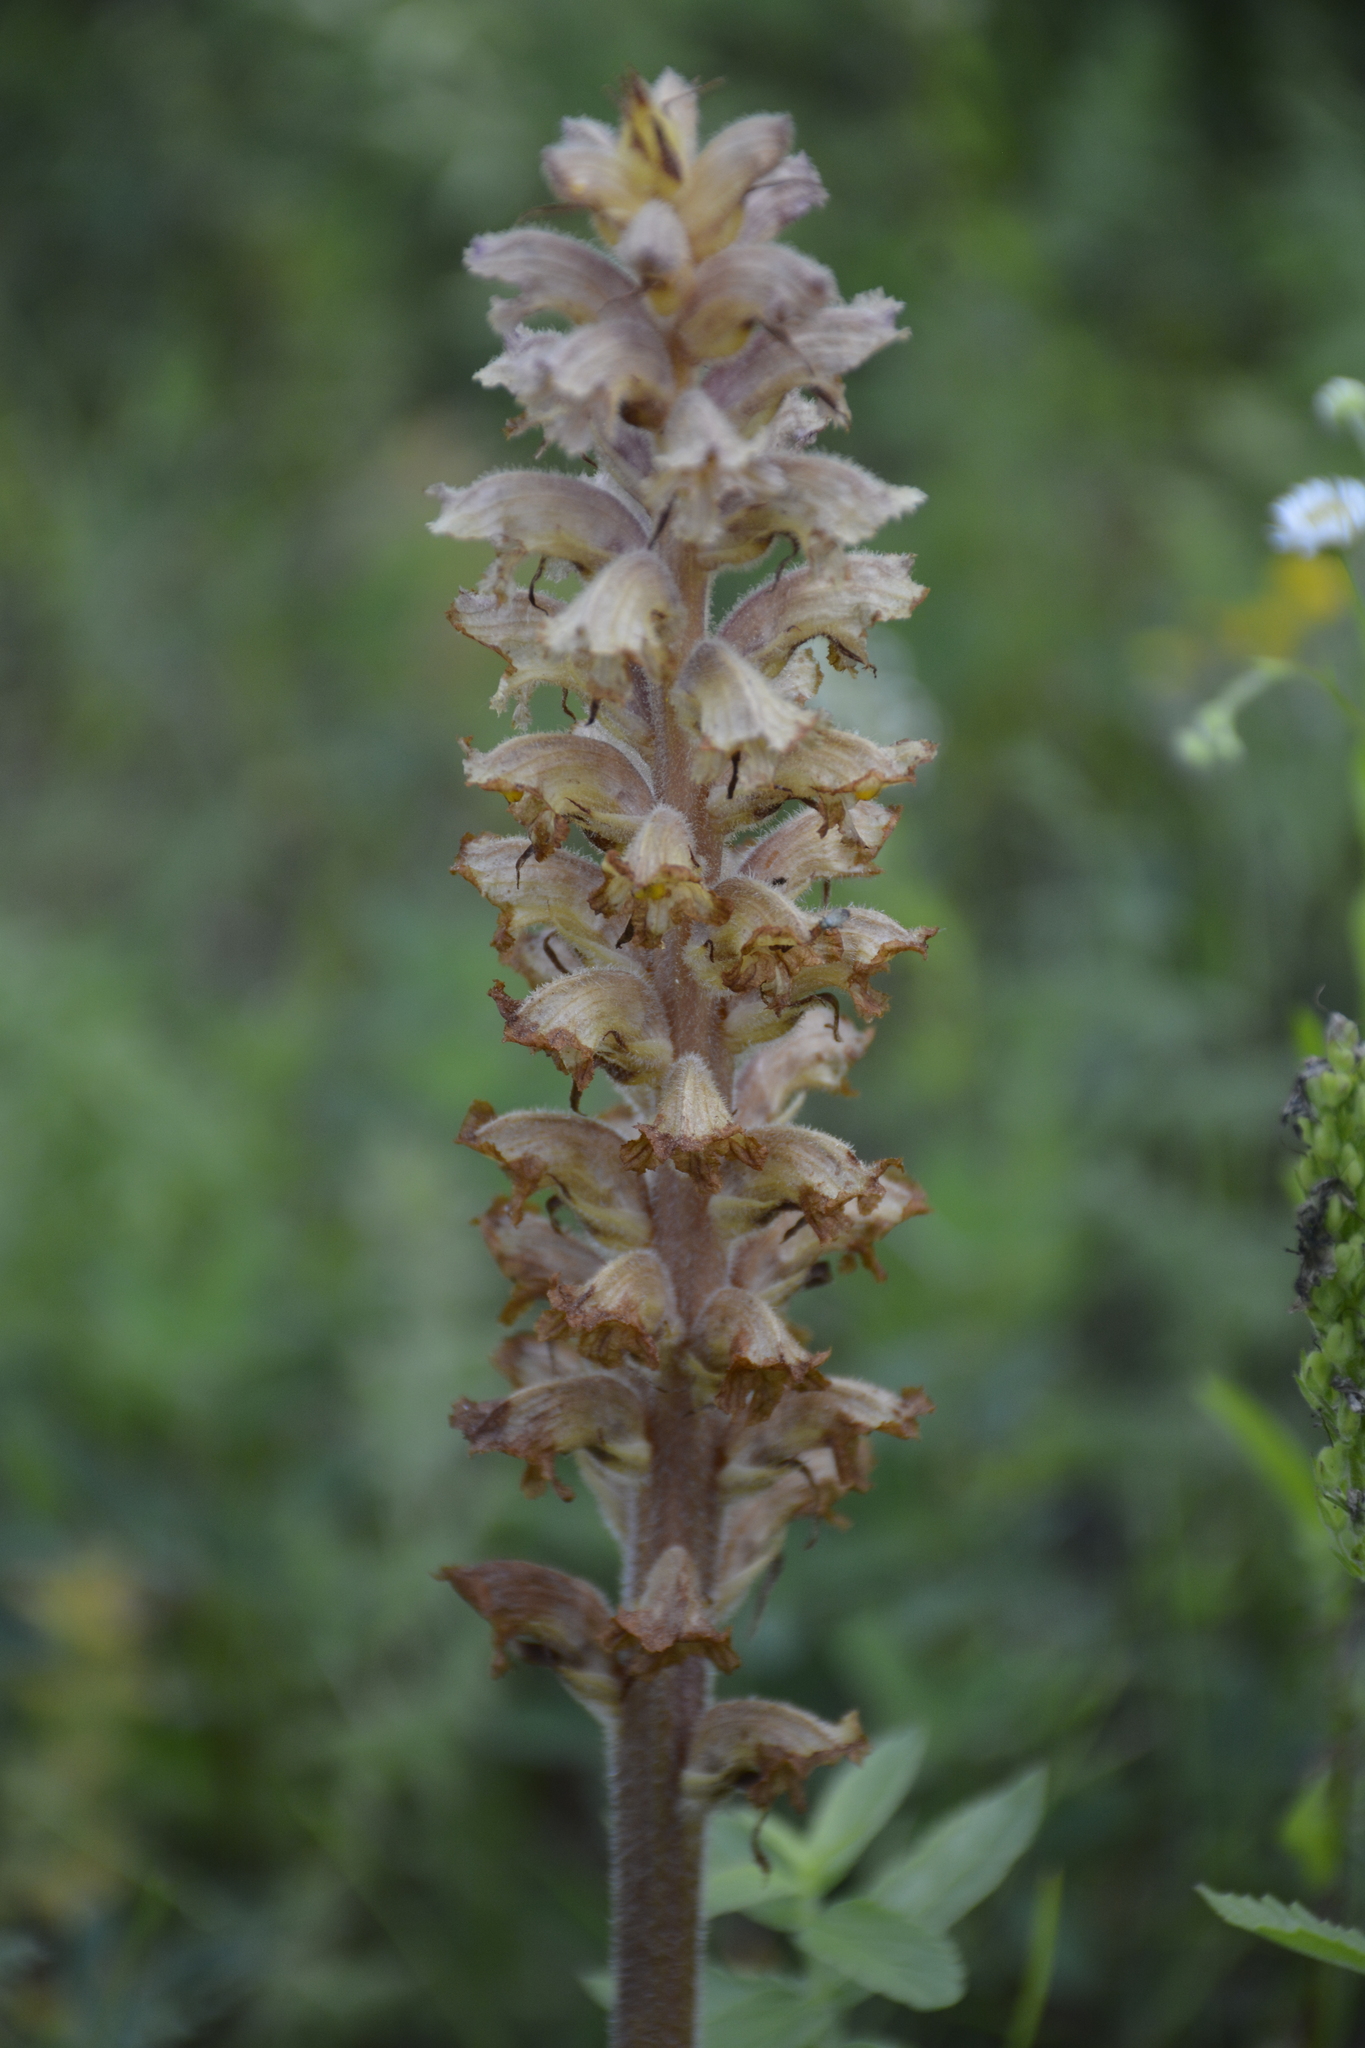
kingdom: Plantae
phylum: Tracheophyta
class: Magnoliopsida
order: Lamiales
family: Orobanchaceae
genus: Orobanche
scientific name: Orobanche alsatica
